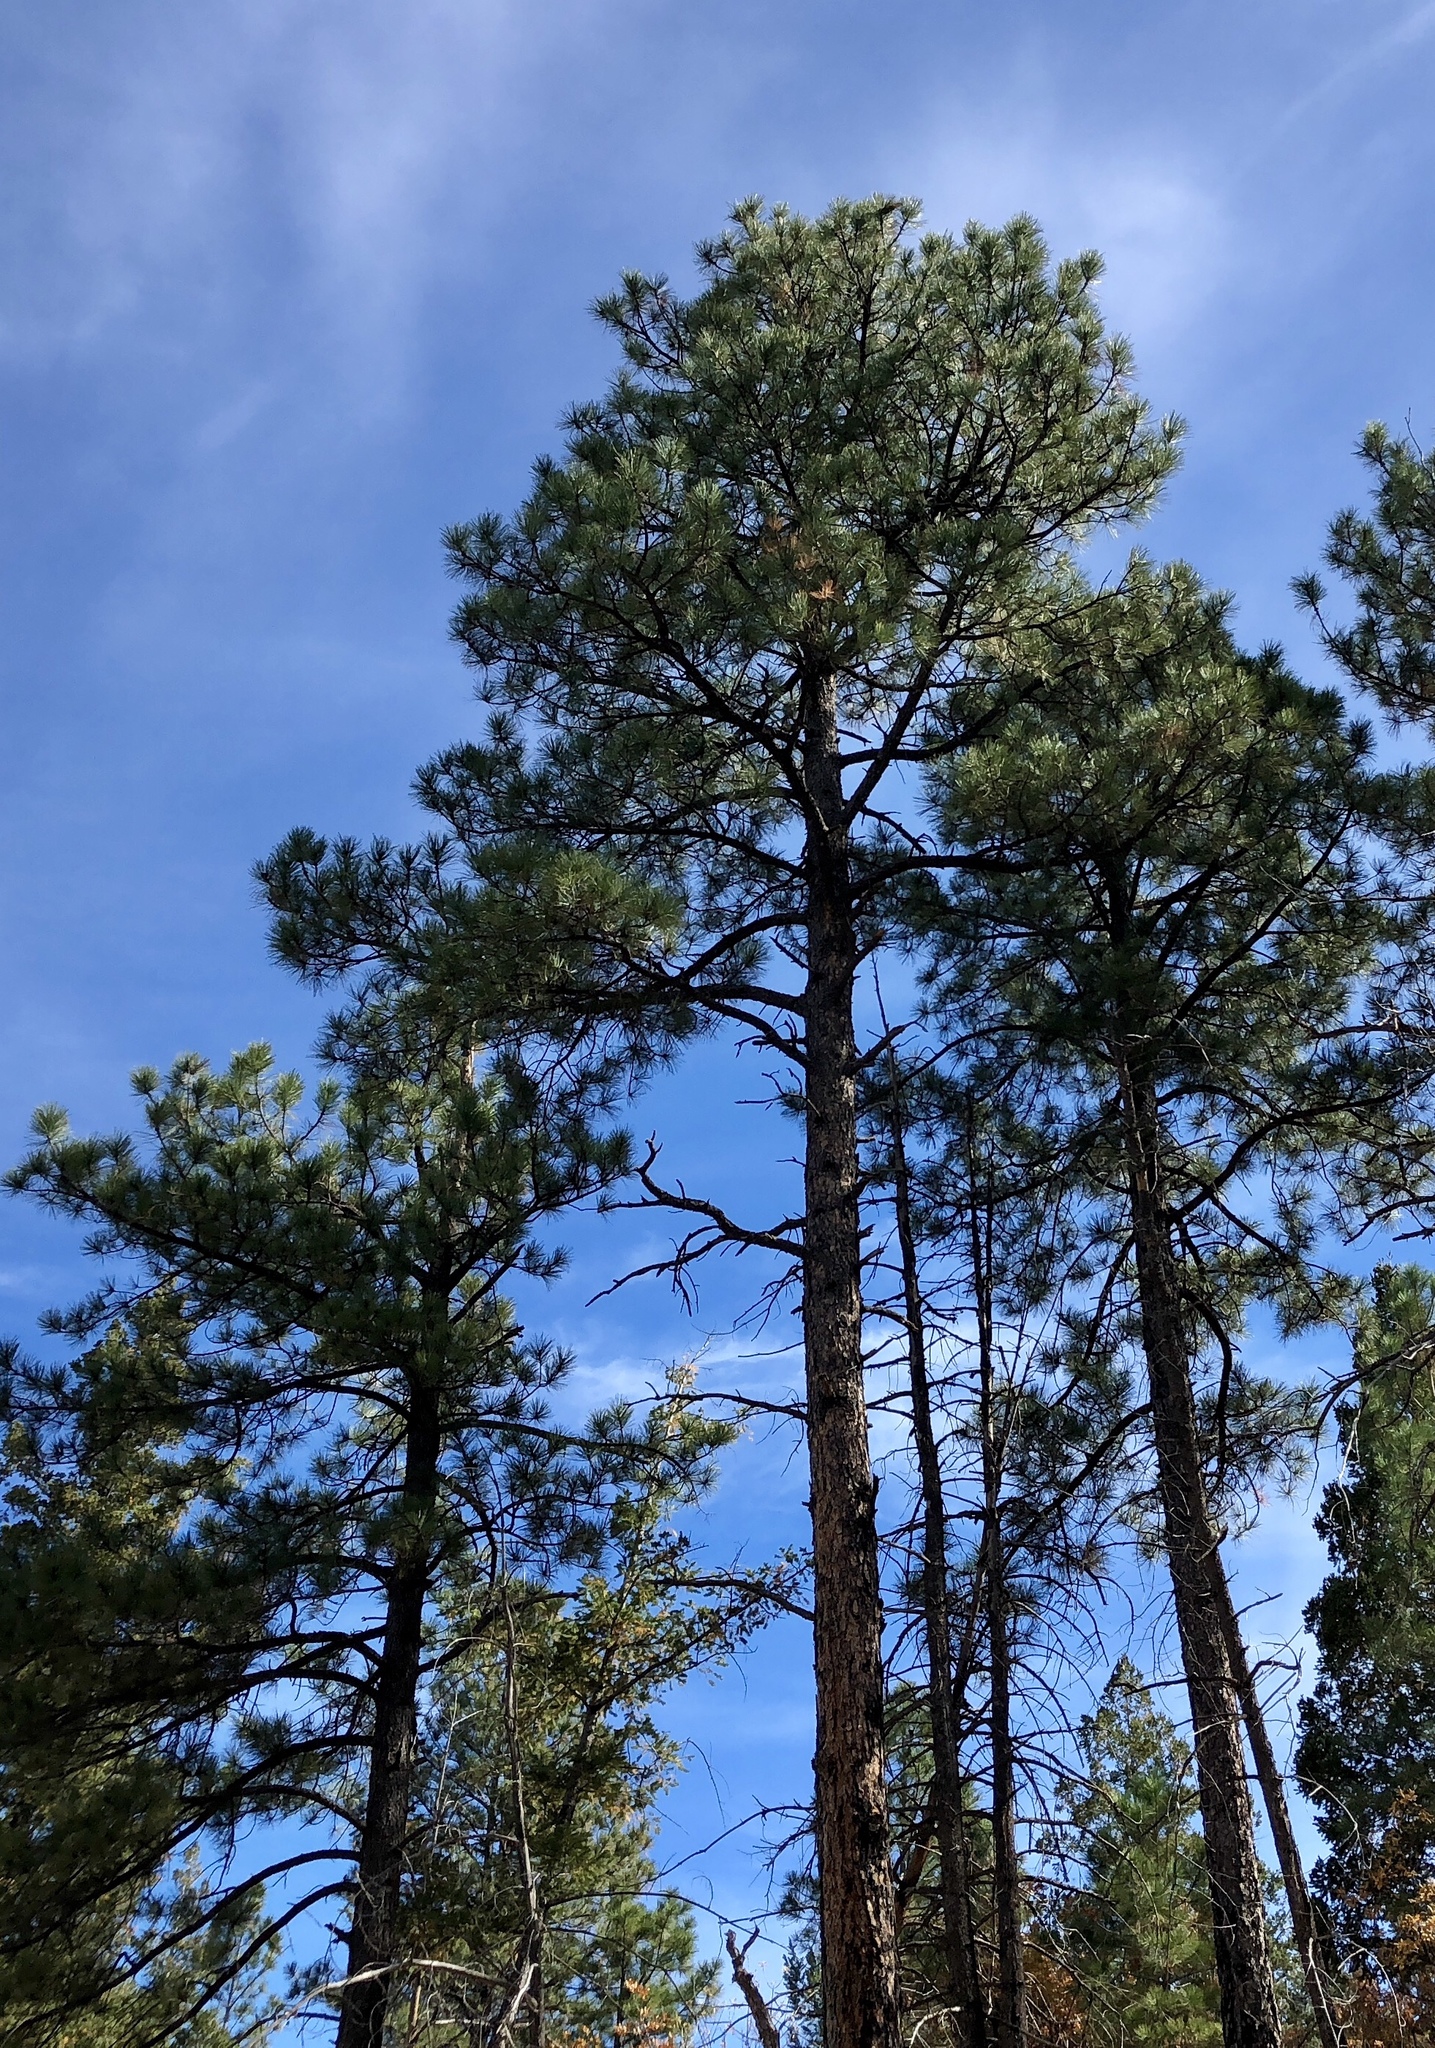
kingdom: Plantae
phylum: Tracheophyta
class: Pinopsida
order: Pinales
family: Pinaceae
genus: Pinus
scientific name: Pinus ponderosa
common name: Western yellow-pine
